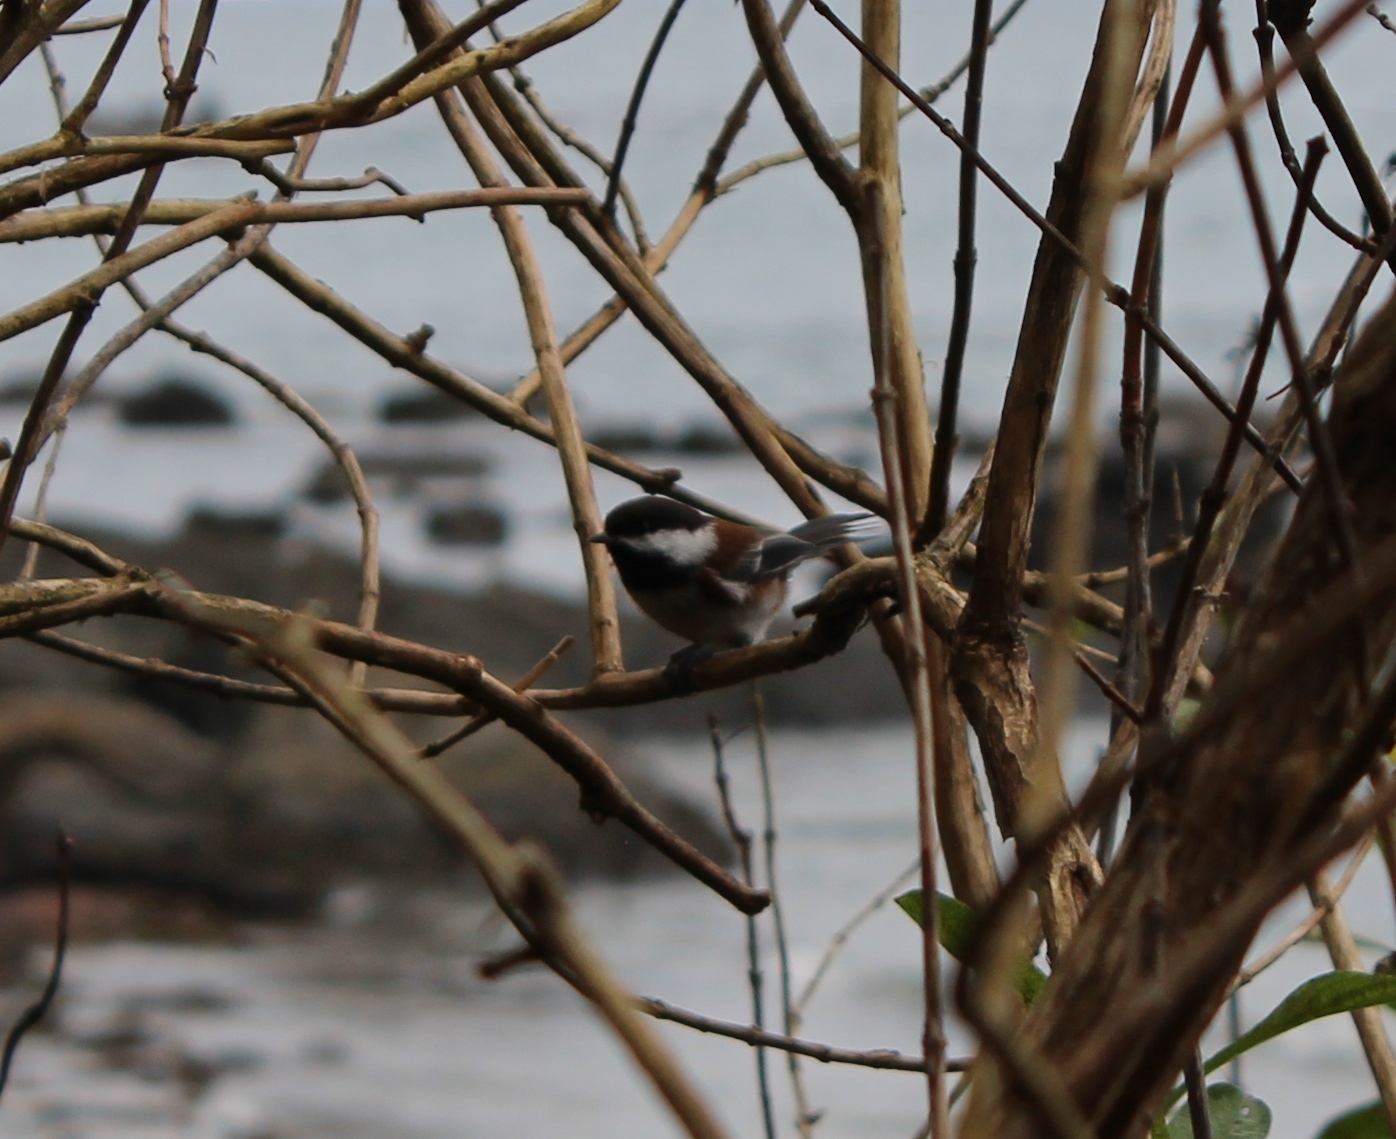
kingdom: Animalia
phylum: Chordata
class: Aves
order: Passeriformes
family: Paridae
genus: Poecile
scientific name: Poecile rufescens
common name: Chestnut-backed chickadee
